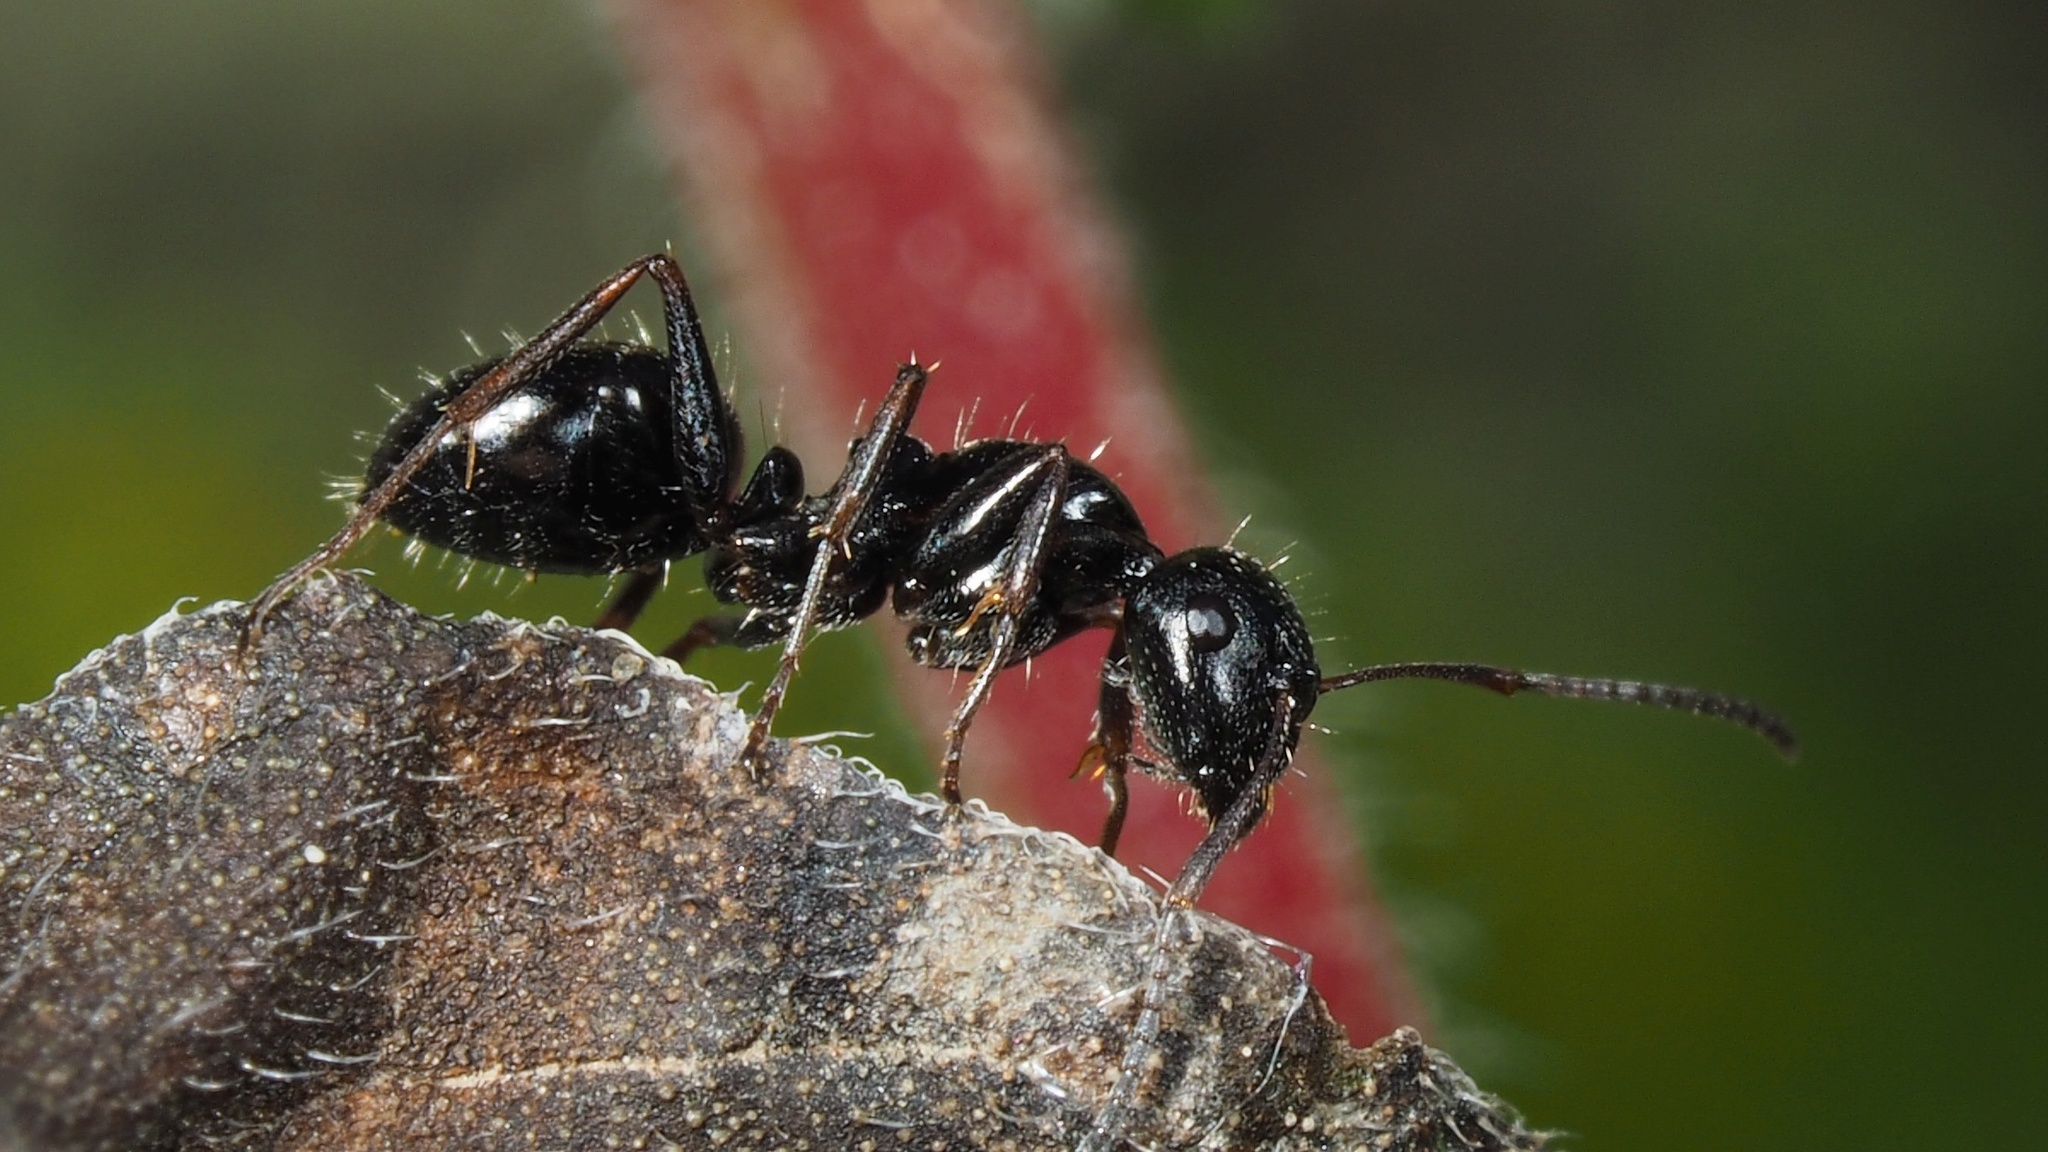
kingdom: Animalia
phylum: Arthropoda
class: Insecta
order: Hymenoptera
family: Formicidae
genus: Camponotus
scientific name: Camponotus piceus
